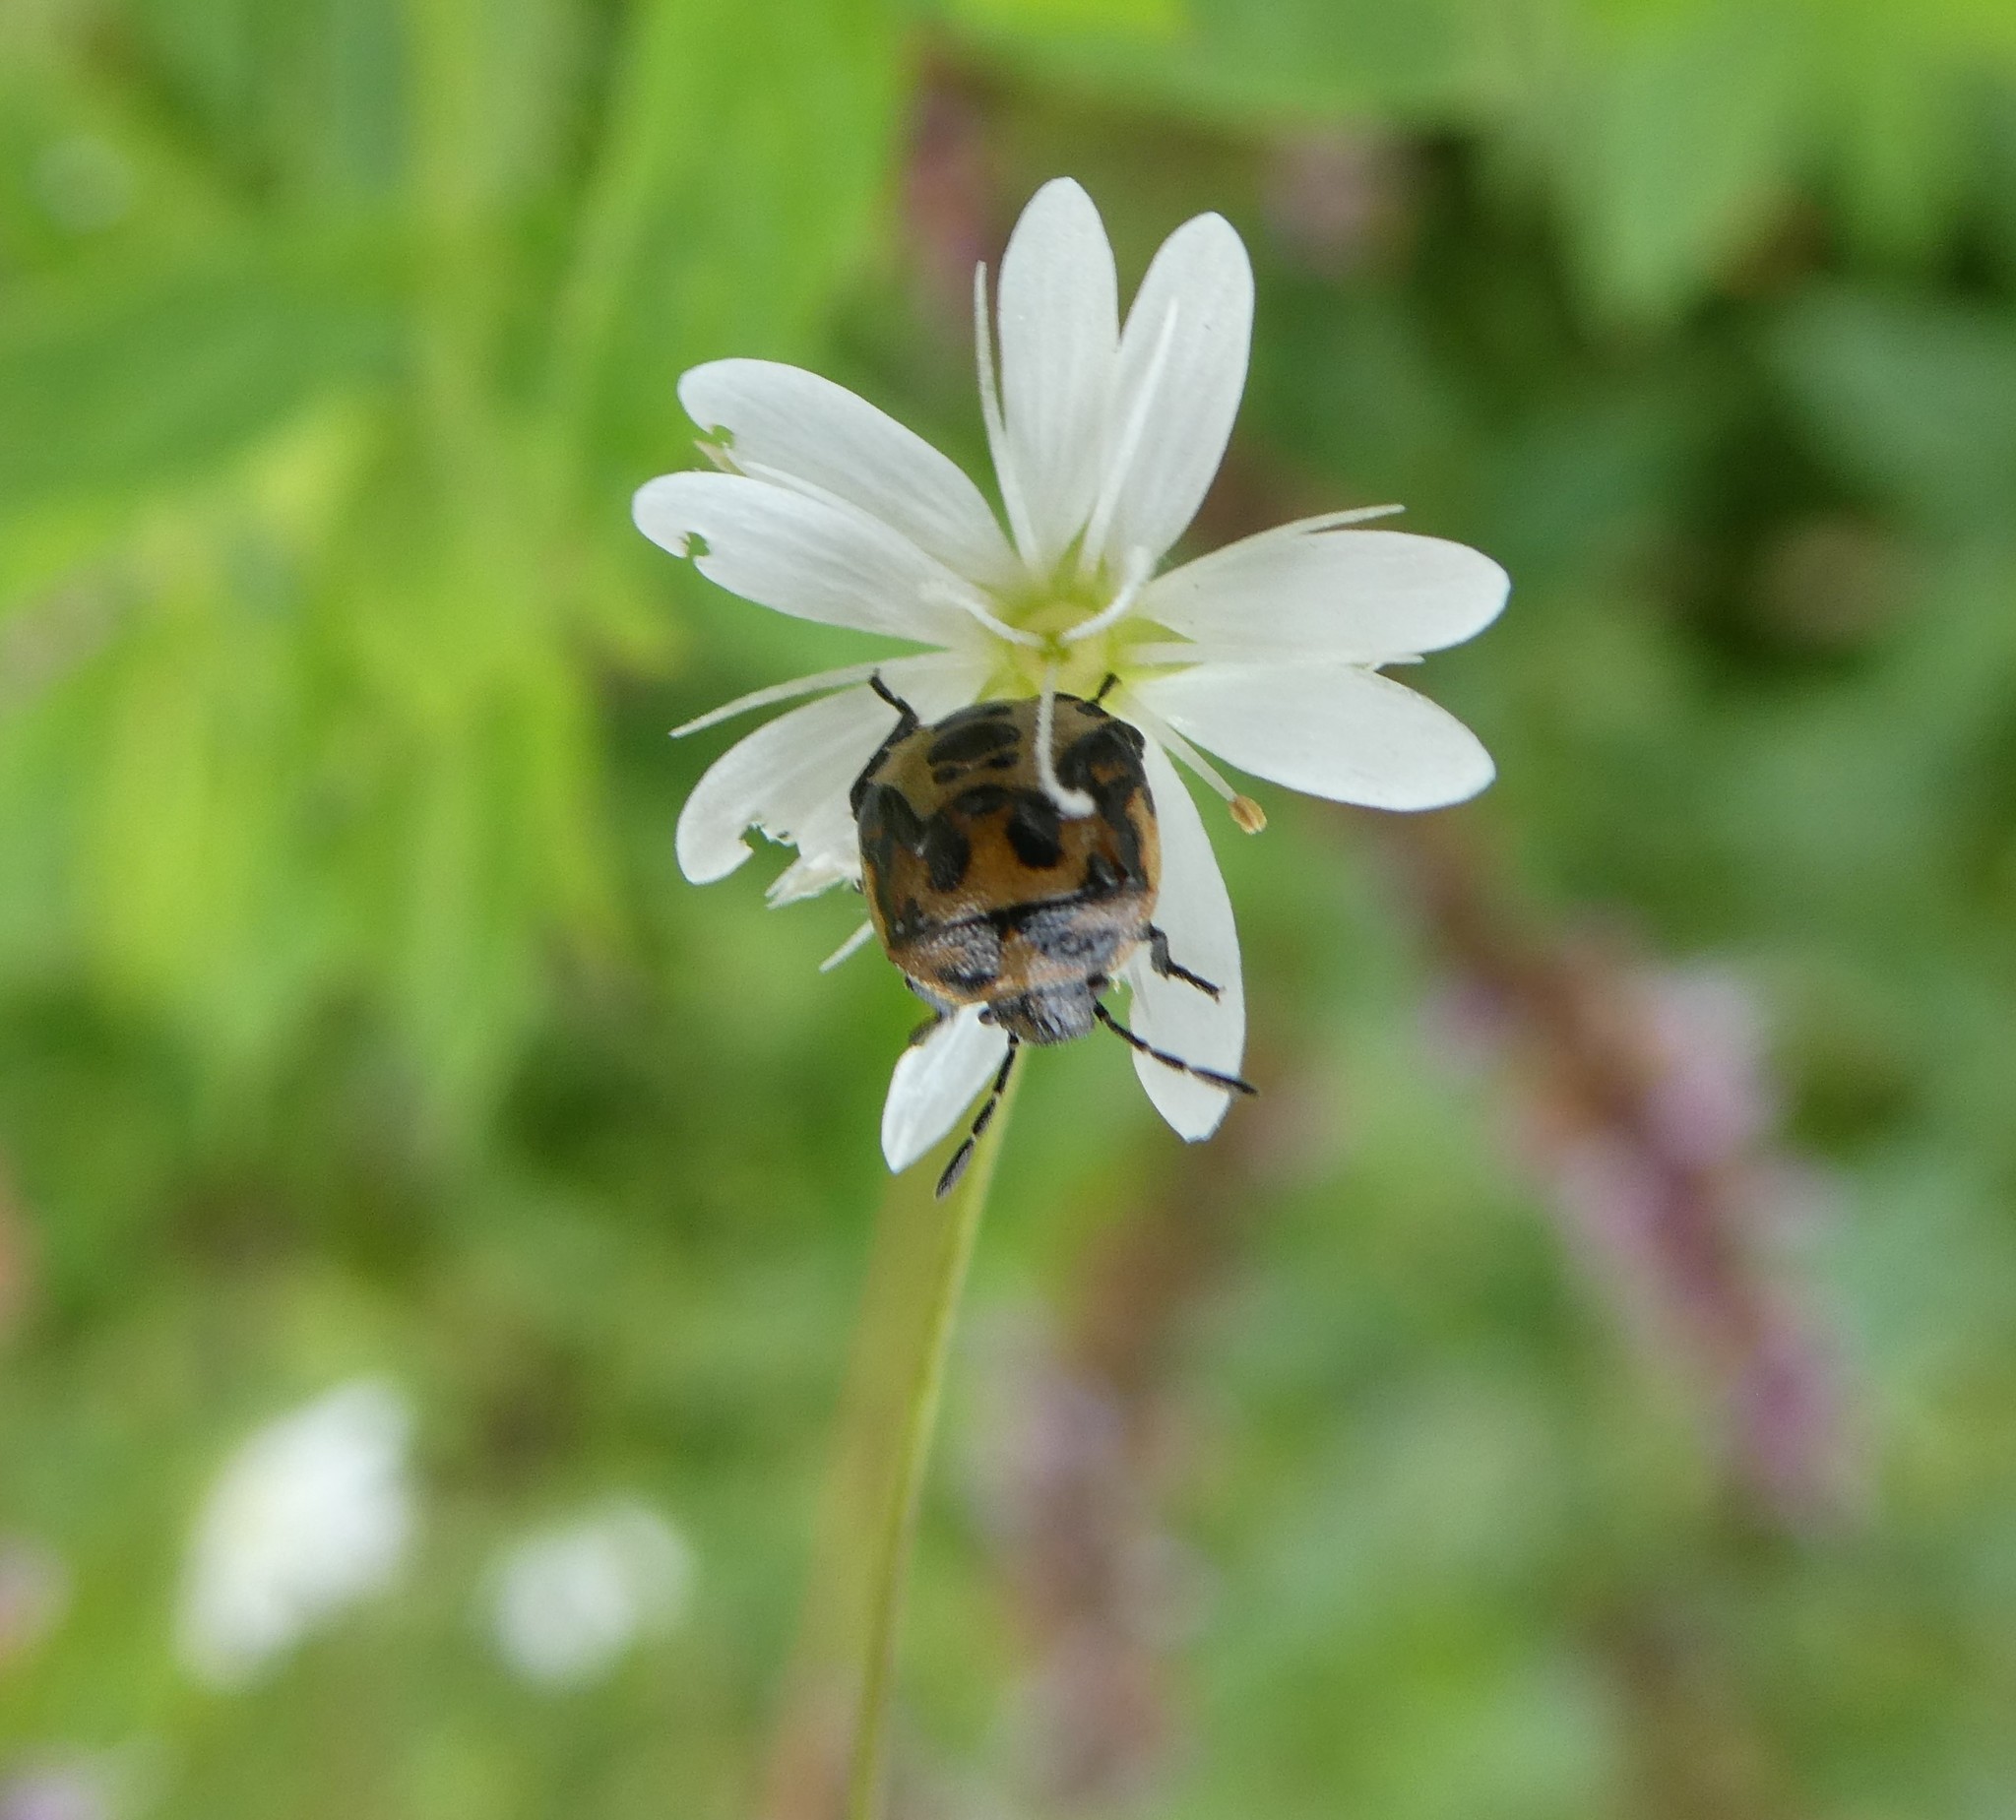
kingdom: Animalia
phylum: Arthropoda
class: Insecta
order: Hemiptera
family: Pentatomidae
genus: Cosmopepla
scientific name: Cosmopepla lintneriana
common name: Twice-stabbed stink bug
